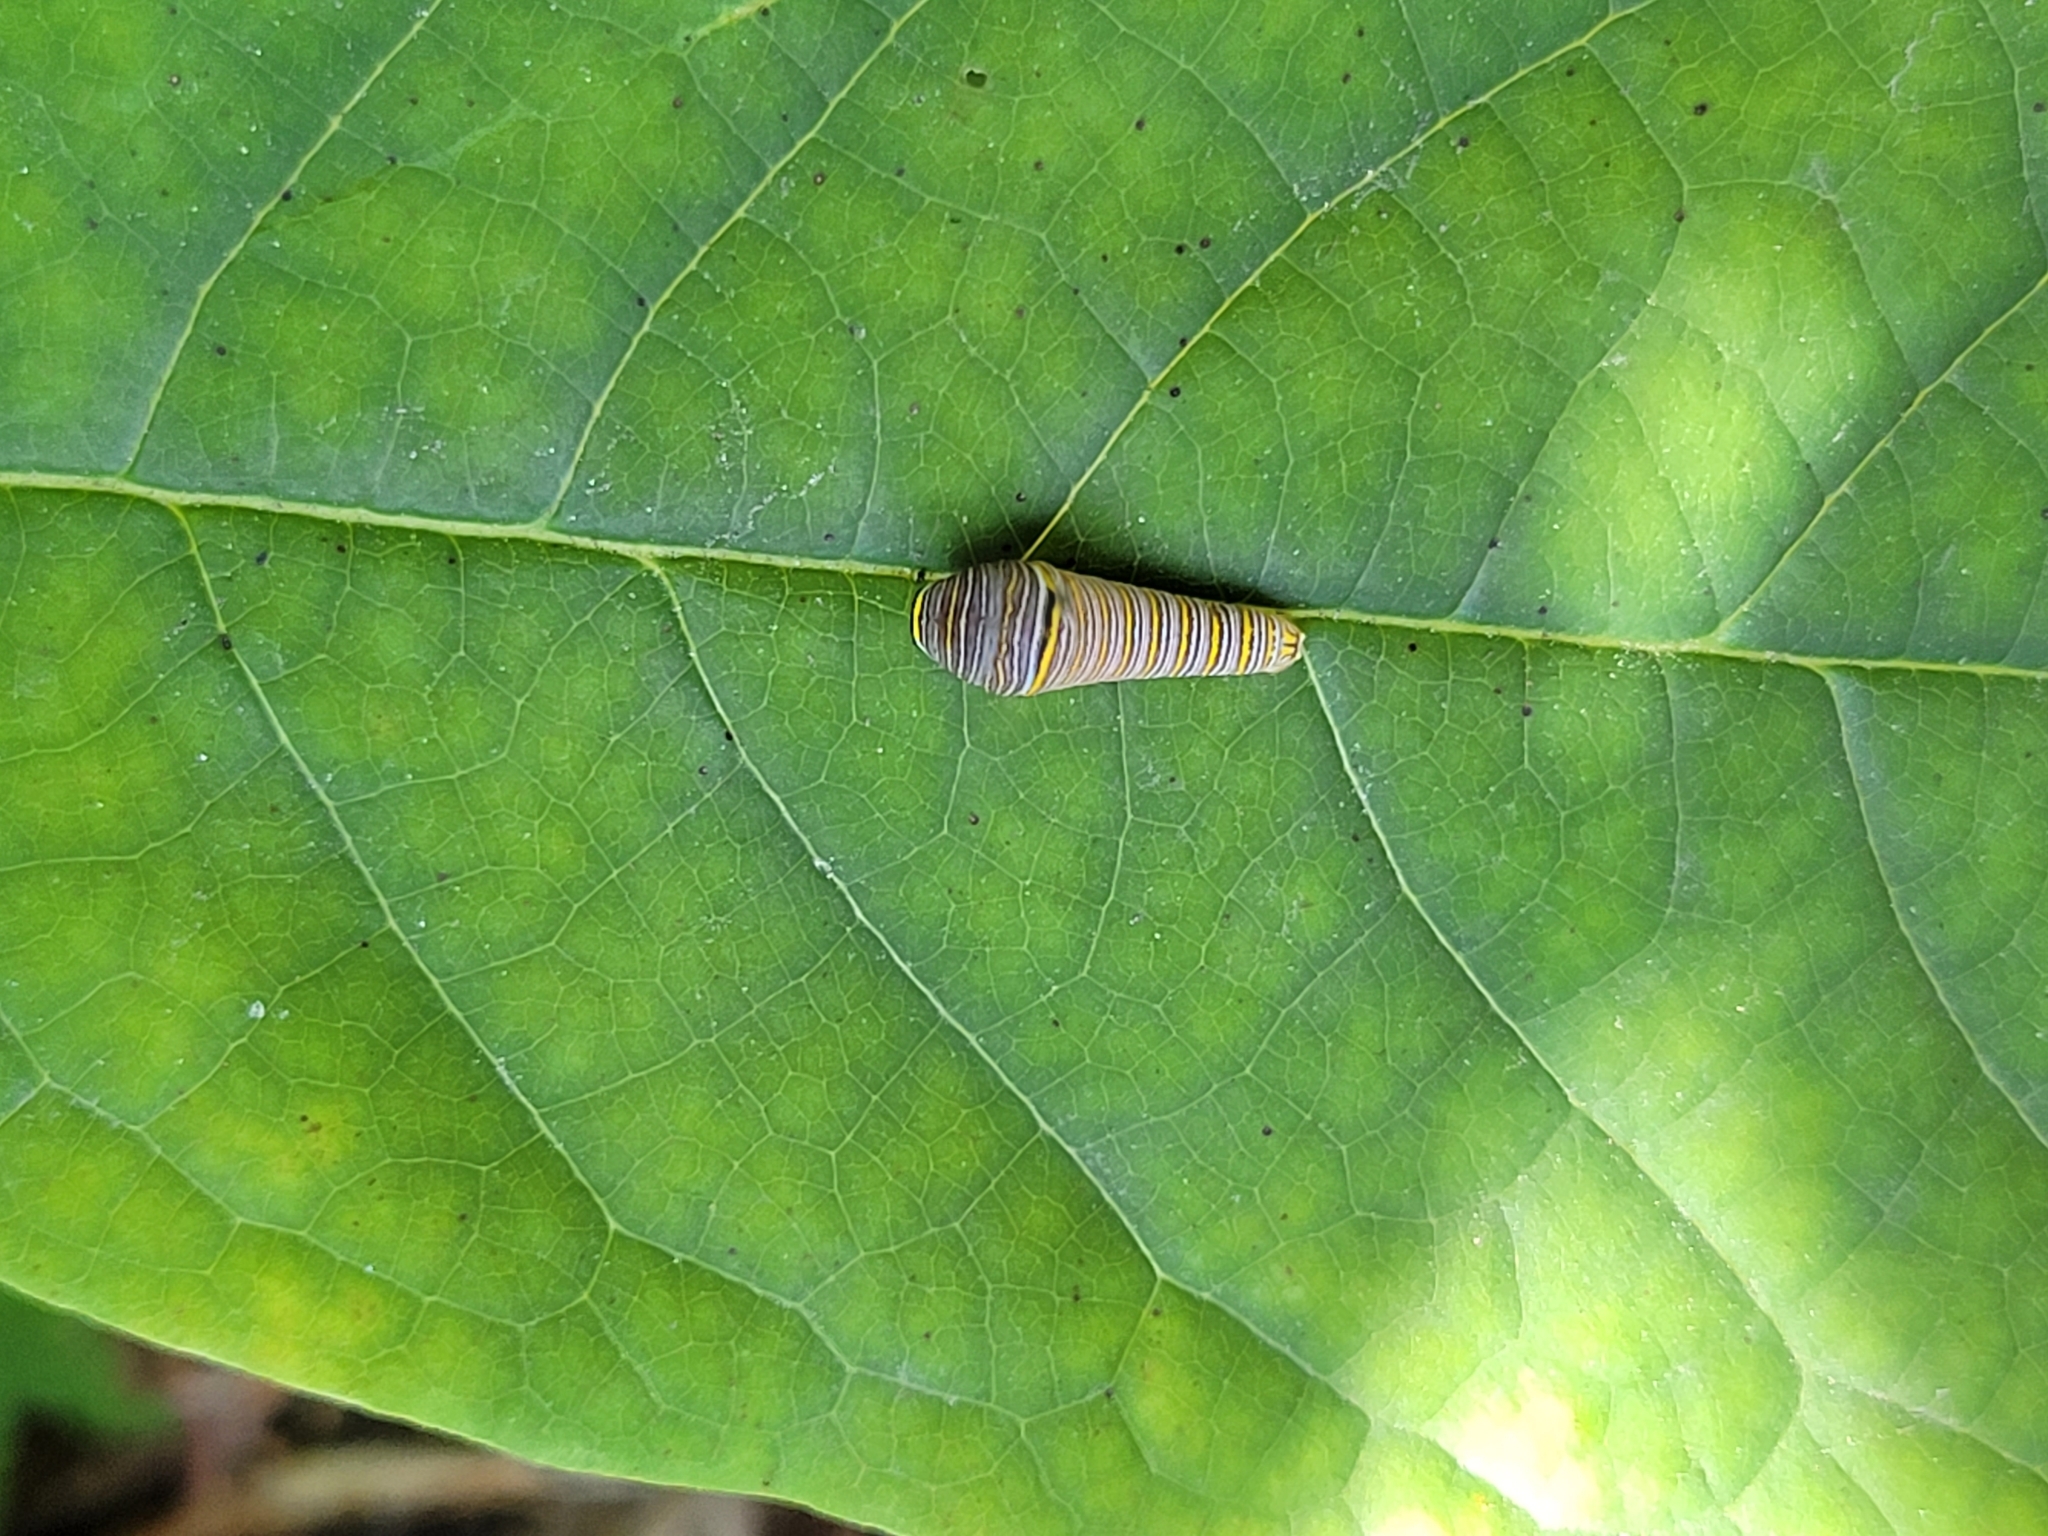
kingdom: Animalia
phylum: Arthropoda
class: Insecta
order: Lepidoptera
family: Papilionidae
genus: Protographium
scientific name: Protographium marcellus
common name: Zebra swallowtail
